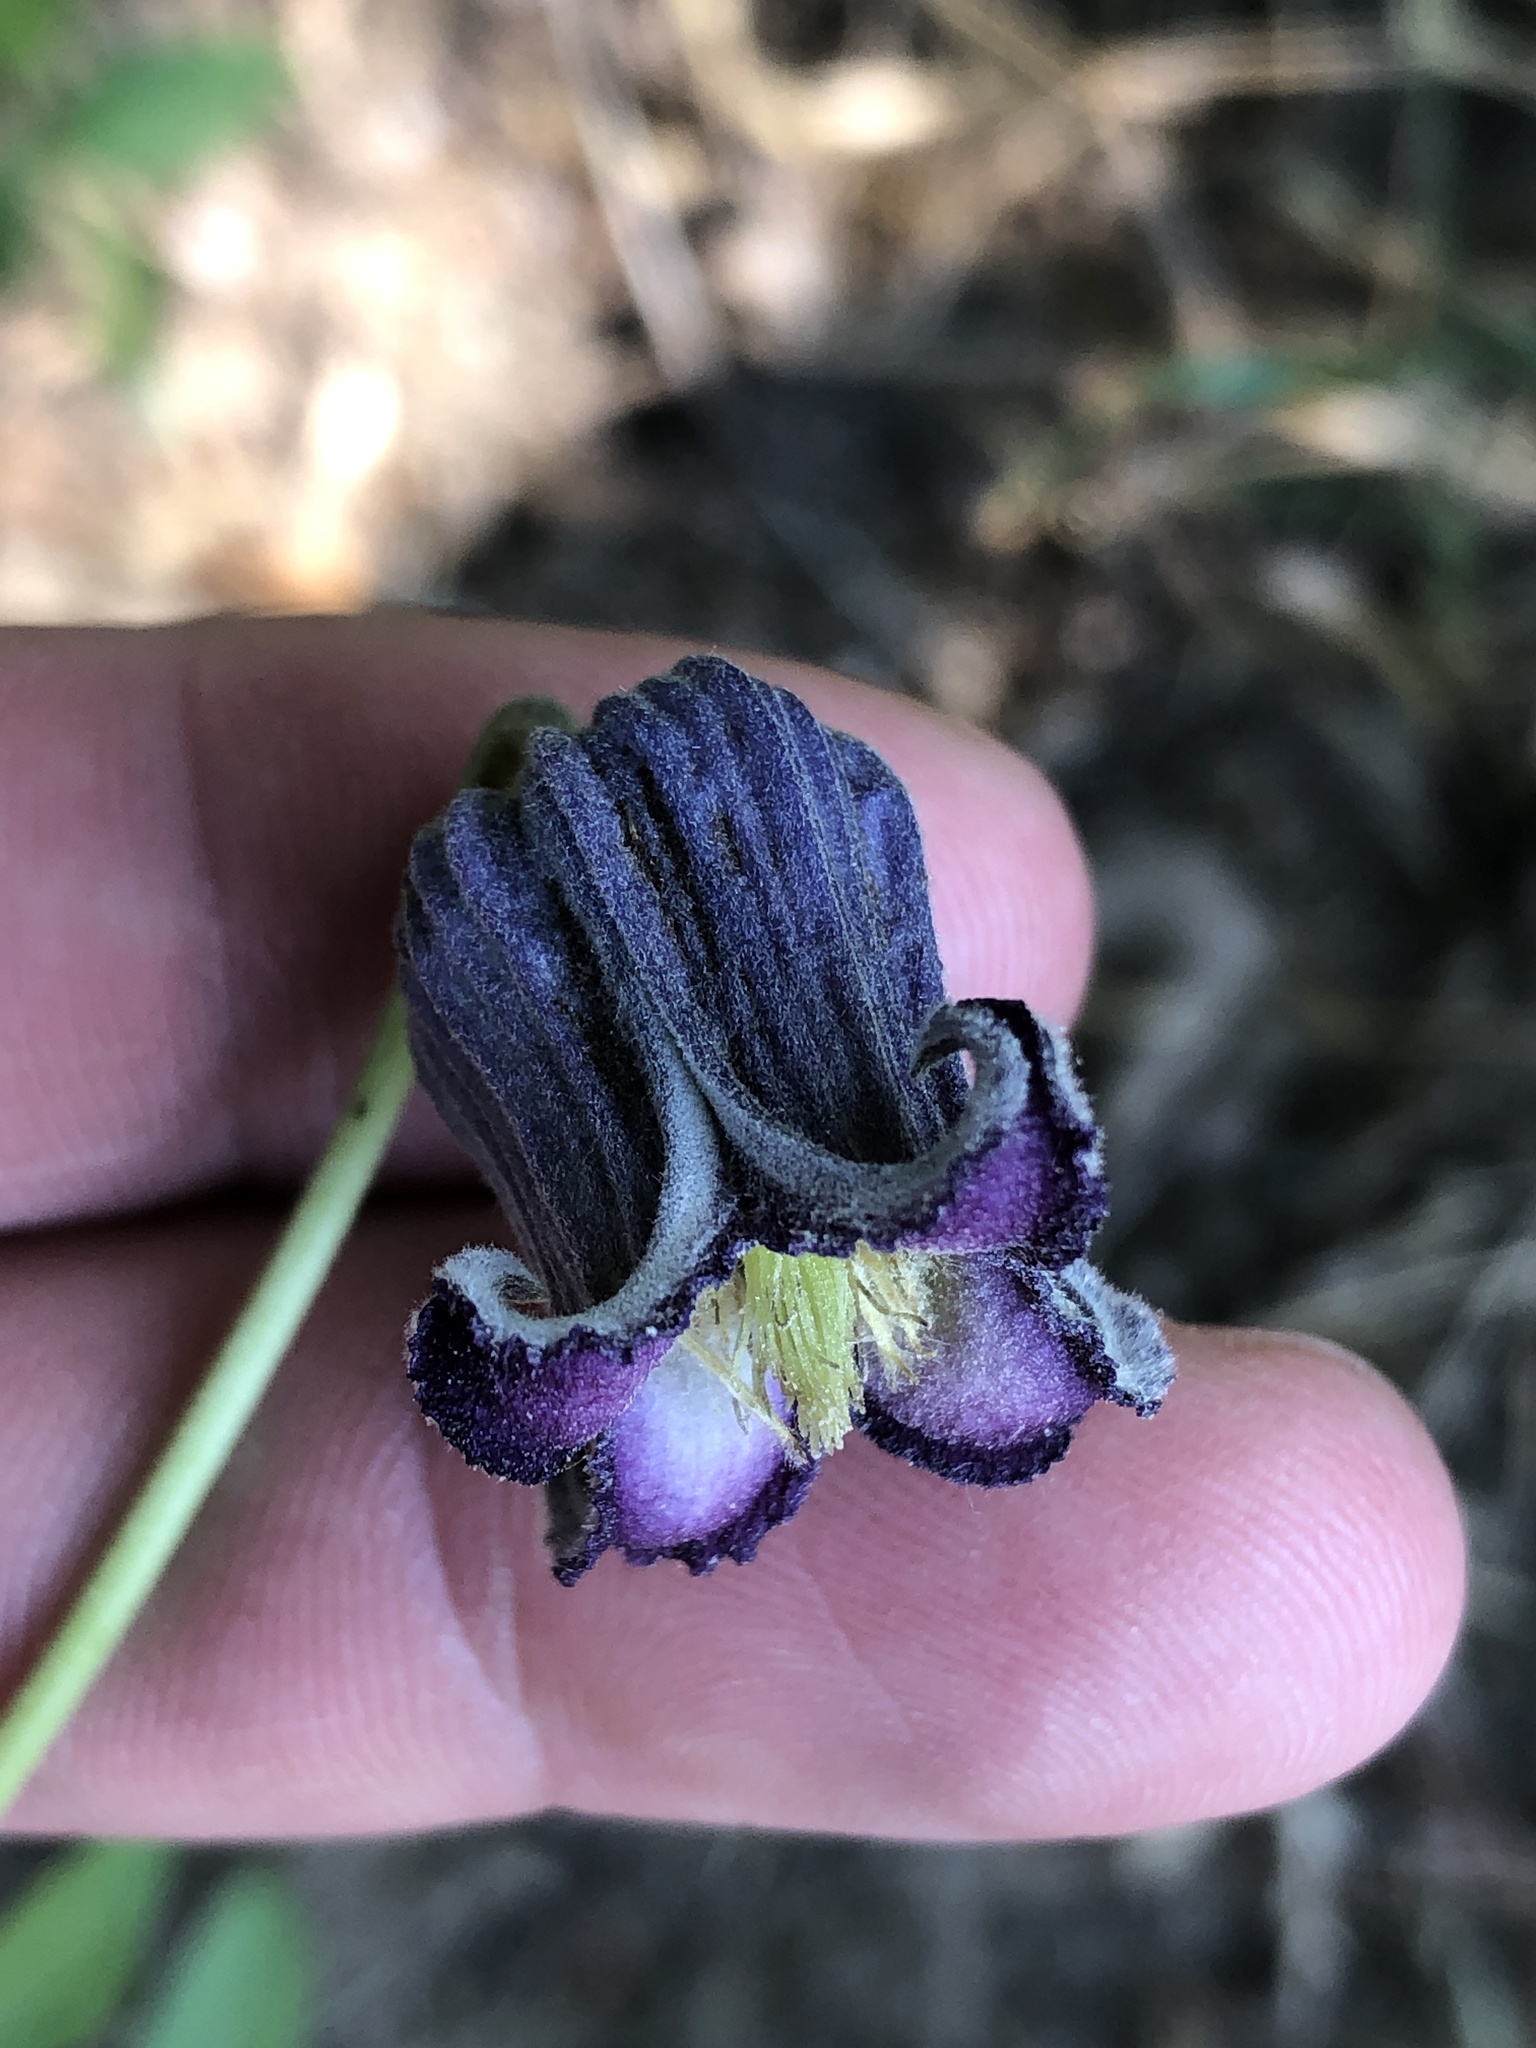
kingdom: Plantae
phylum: Tracheophyta
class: Magnoliopsida
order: Ranunculales
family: Ranunculaceae
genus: Clematis
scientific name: Clematis pitcheri
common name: Bellflower clematis
